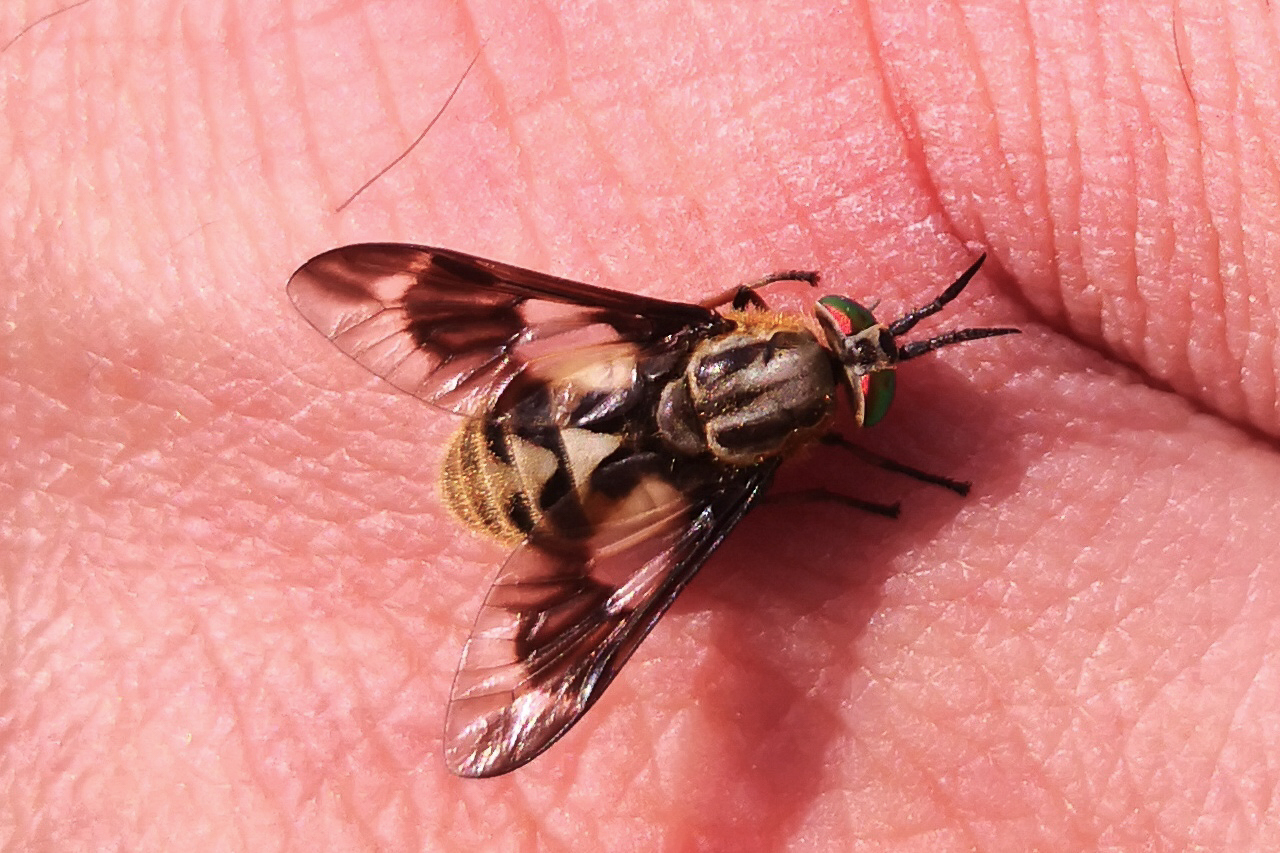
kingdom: Animalia
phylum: Arthropoda
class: Insecta
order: Diptera
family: Tabanidae
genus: Chrysops
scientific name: Chrysops relictus
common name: Twin-lobed deerfly
